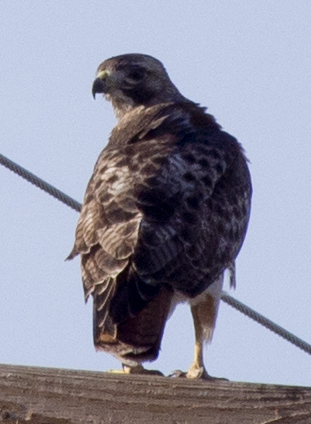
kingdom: Animalia
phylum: Chordata
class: Aves
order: Accipitriformes
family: Accipitridae
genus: Buteo
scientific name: Buteo jamaicensis
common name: Red-tailed hawk
